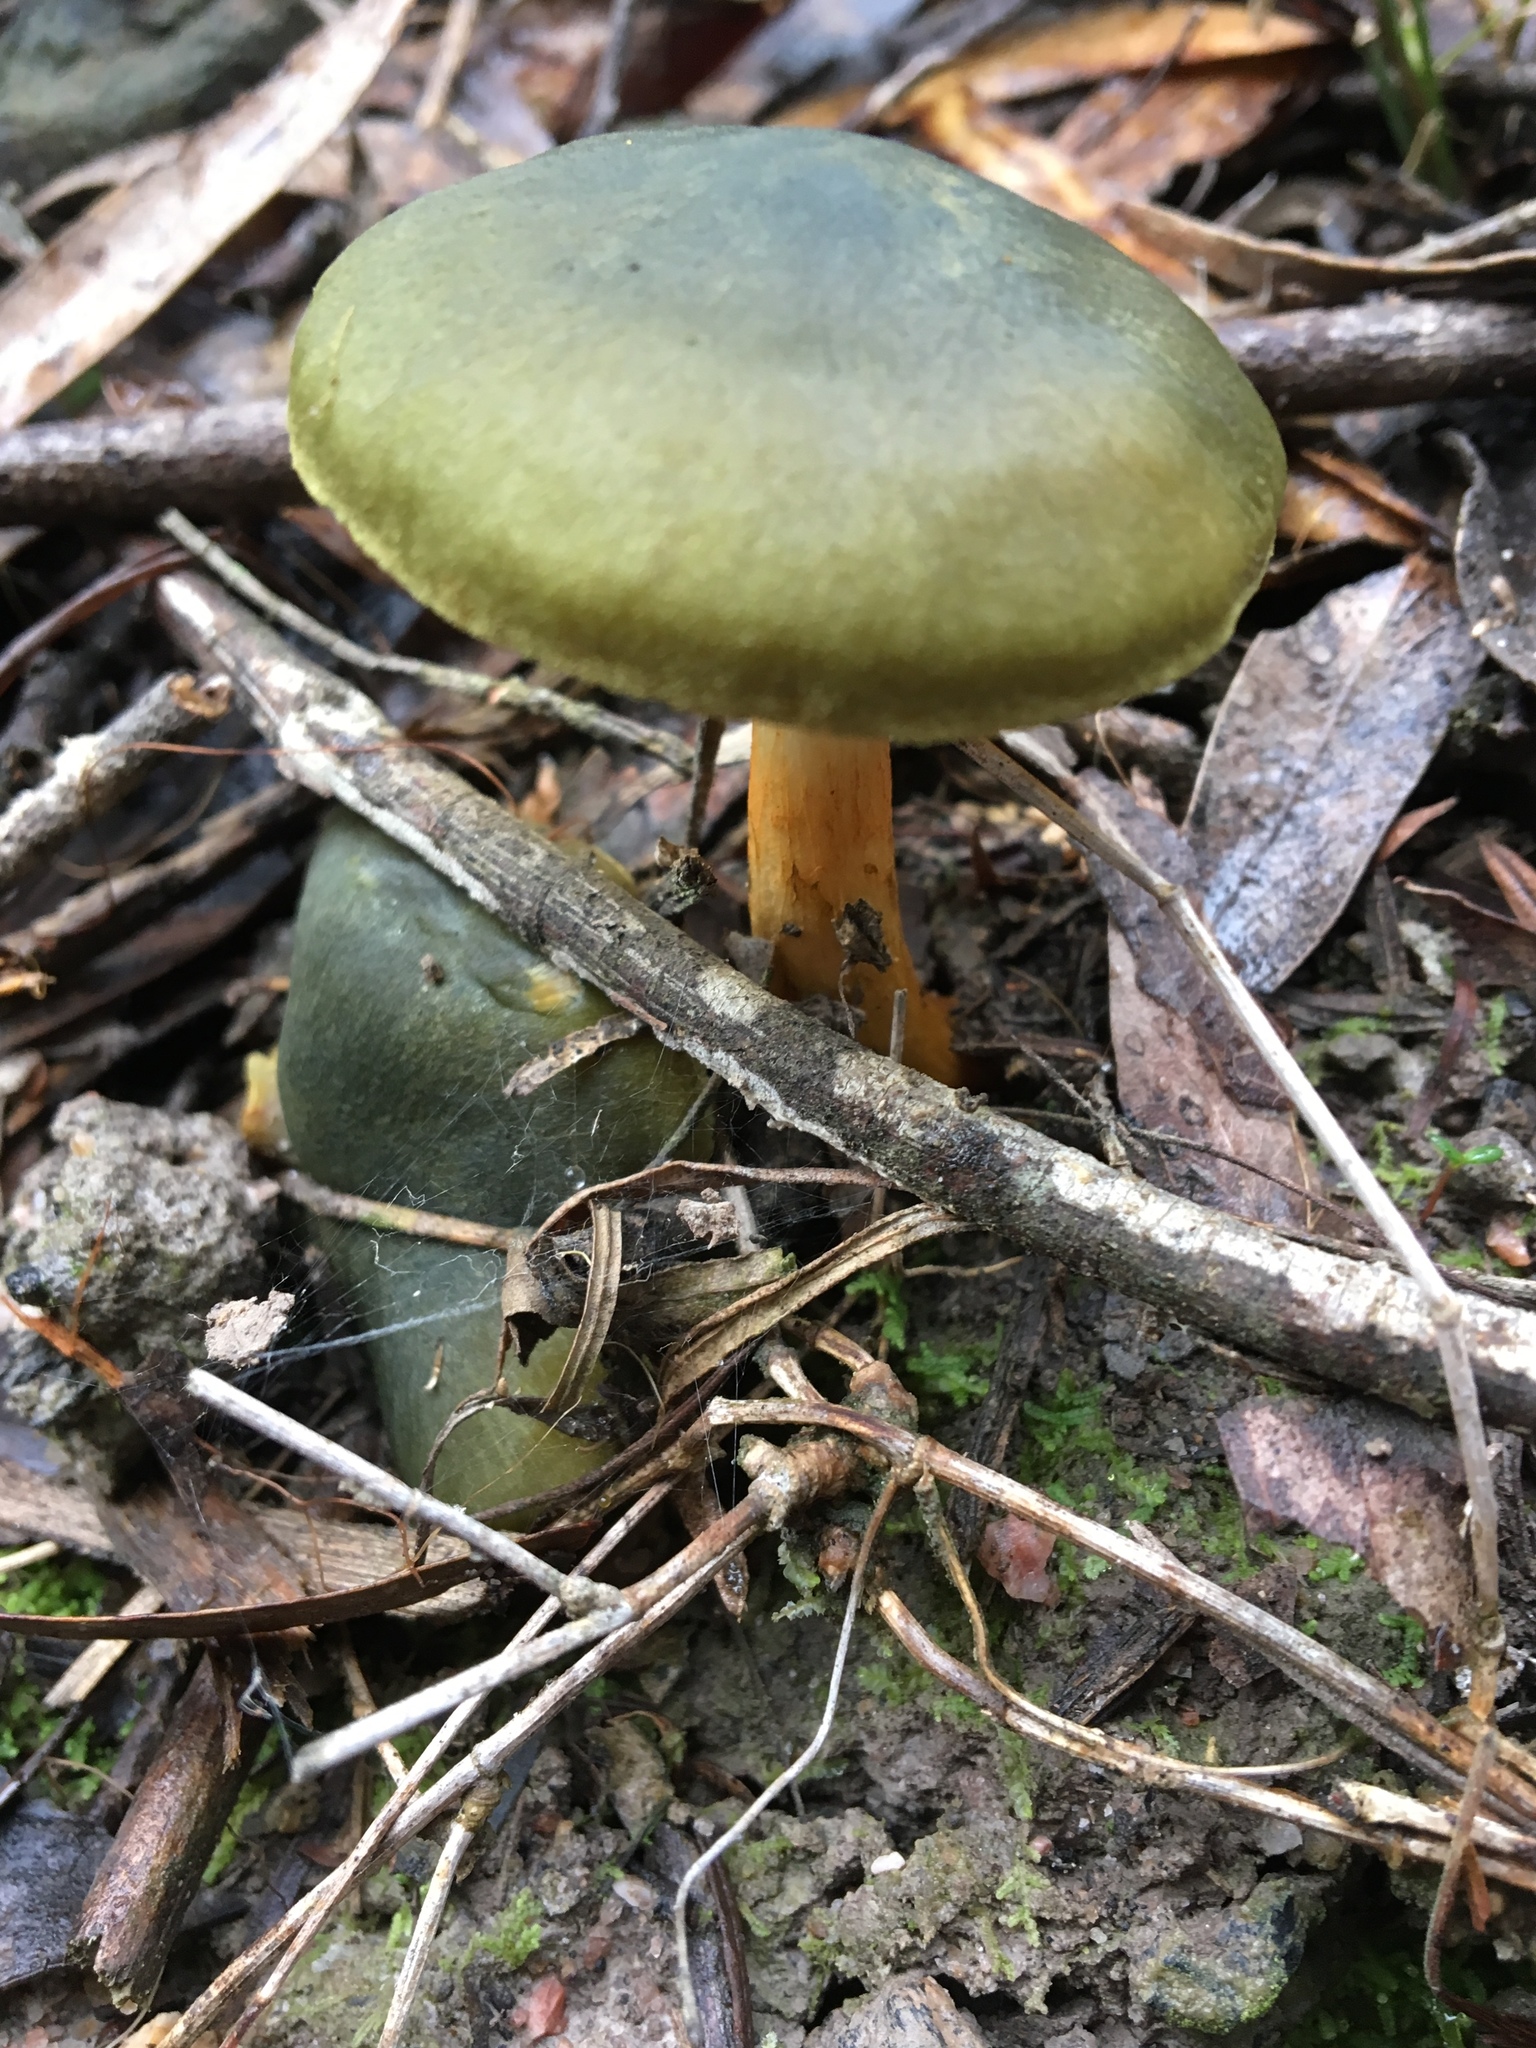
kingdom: Fungi
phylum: Basidiomycota
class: Agaricomycetes
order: Agaricales
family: Cortinariaceae
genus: Cortinarius
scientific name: Cortinarius austrovenetus
